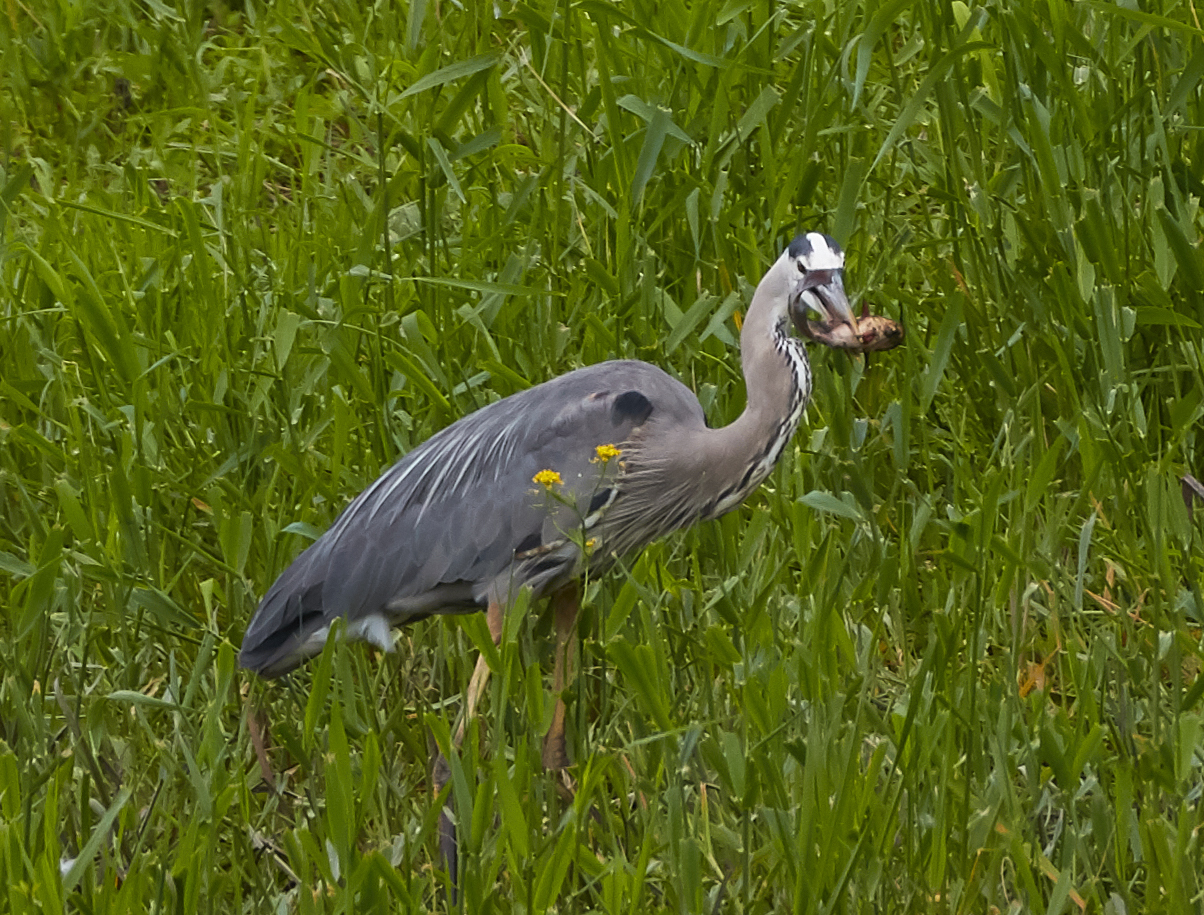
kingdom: Animalia
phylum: Chordata
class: Aves
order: Pelecaniformes
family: Ardeidae
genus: Ardea
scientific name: Ardea herodias
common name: Great blue heron
